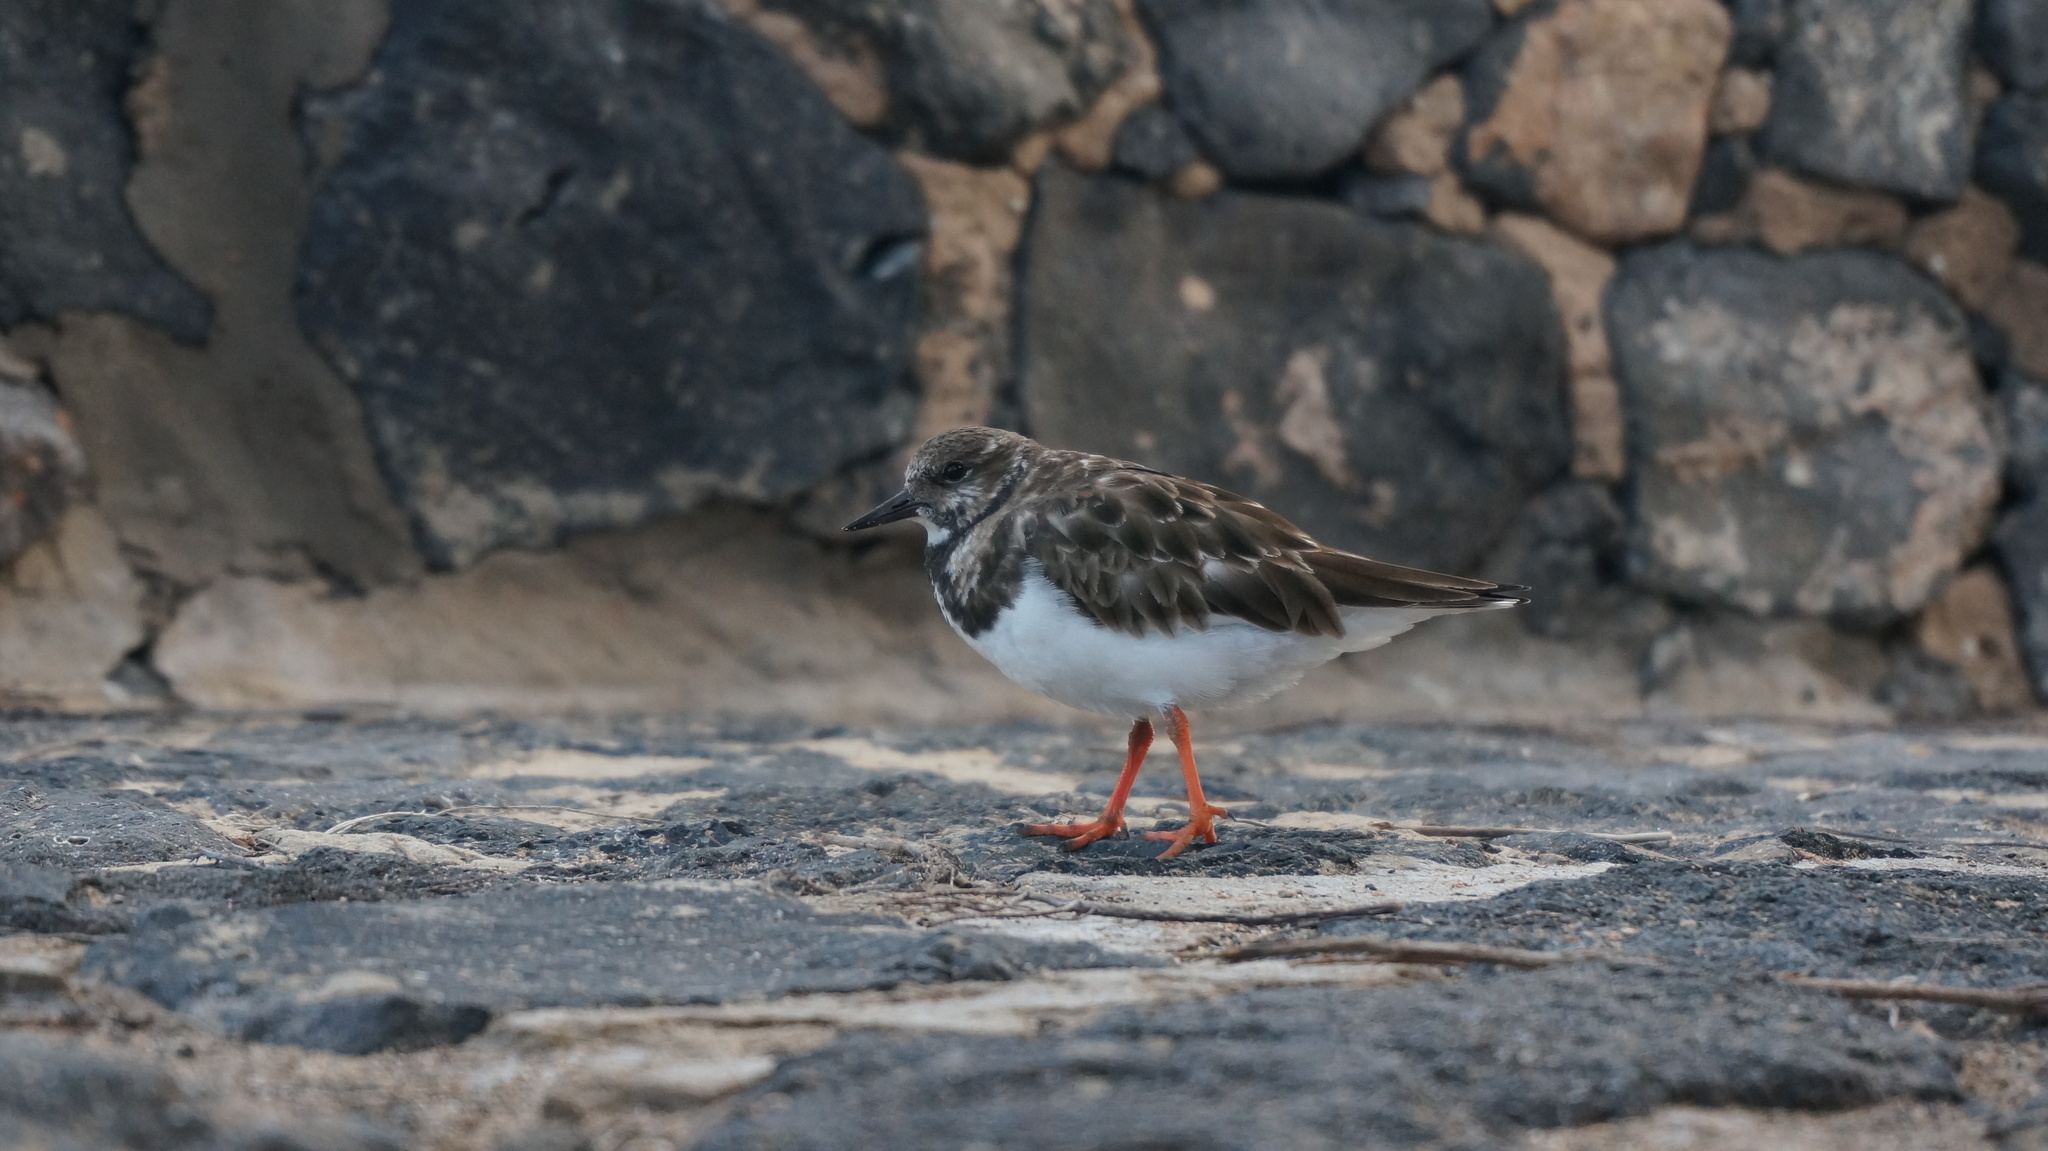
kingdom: Animalia
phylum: Chordata
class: Aves
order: Charadriiformes
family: Scolopacidae
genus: Arenaria
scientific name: Arenaria interpres
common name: Ruddy turnstone
